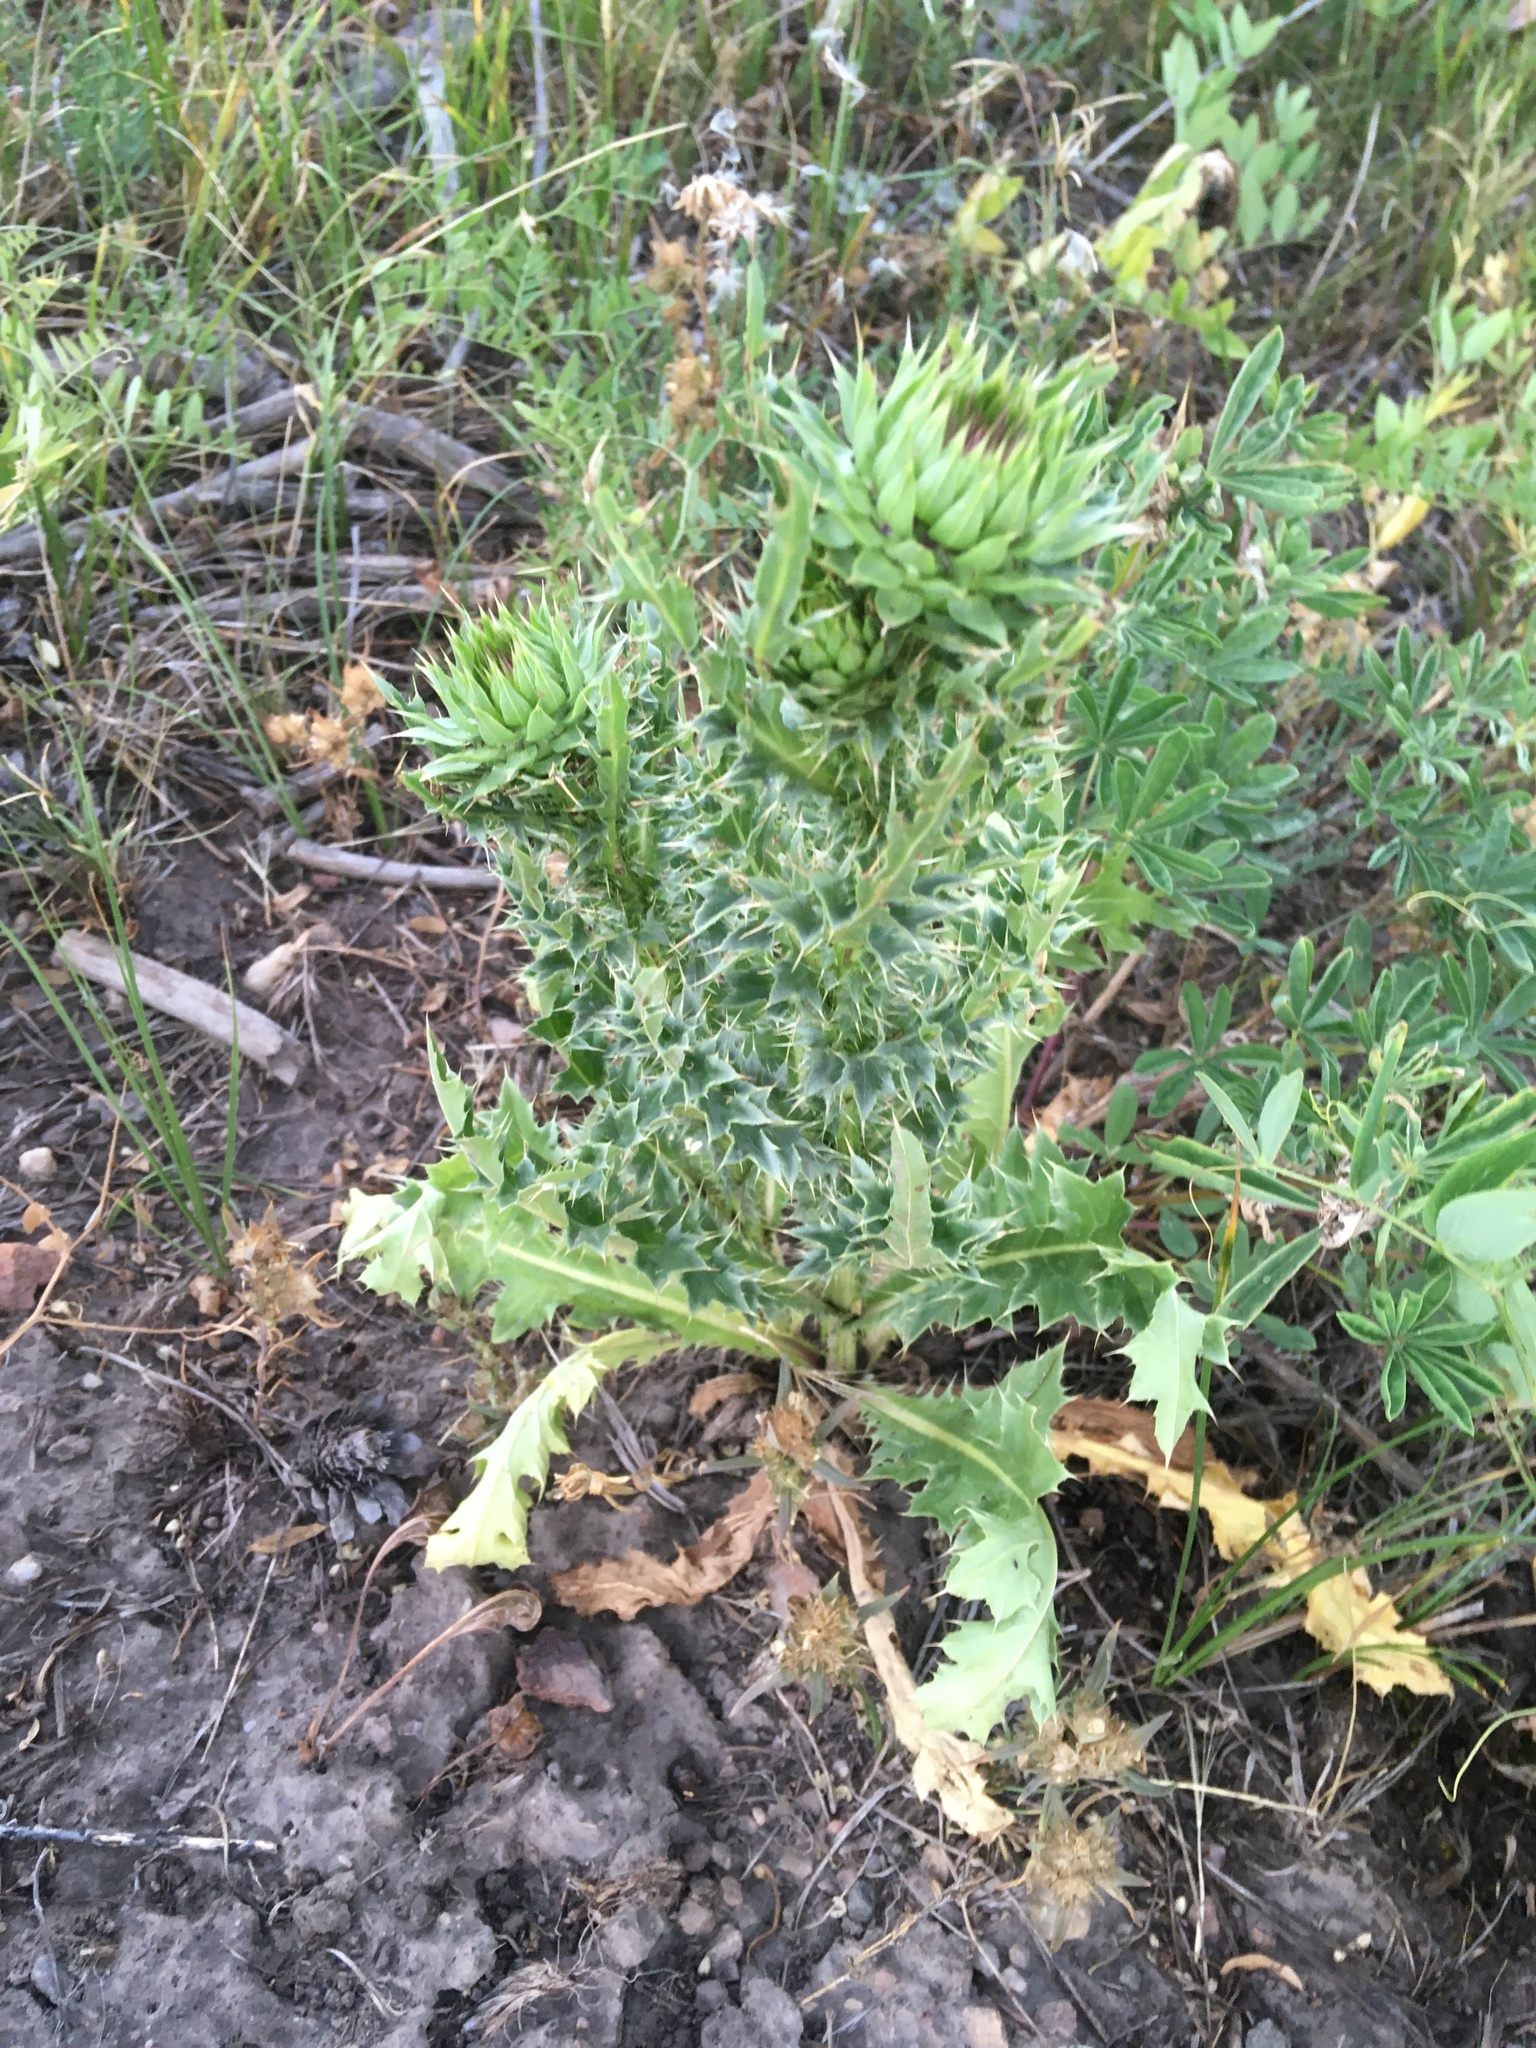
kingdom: Plantae
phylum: Tracheophyta
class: Magnoliopsida
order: Asterales
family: Asteraceae
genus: Carduus
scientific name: Carduus nutans
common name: Musk thistle
